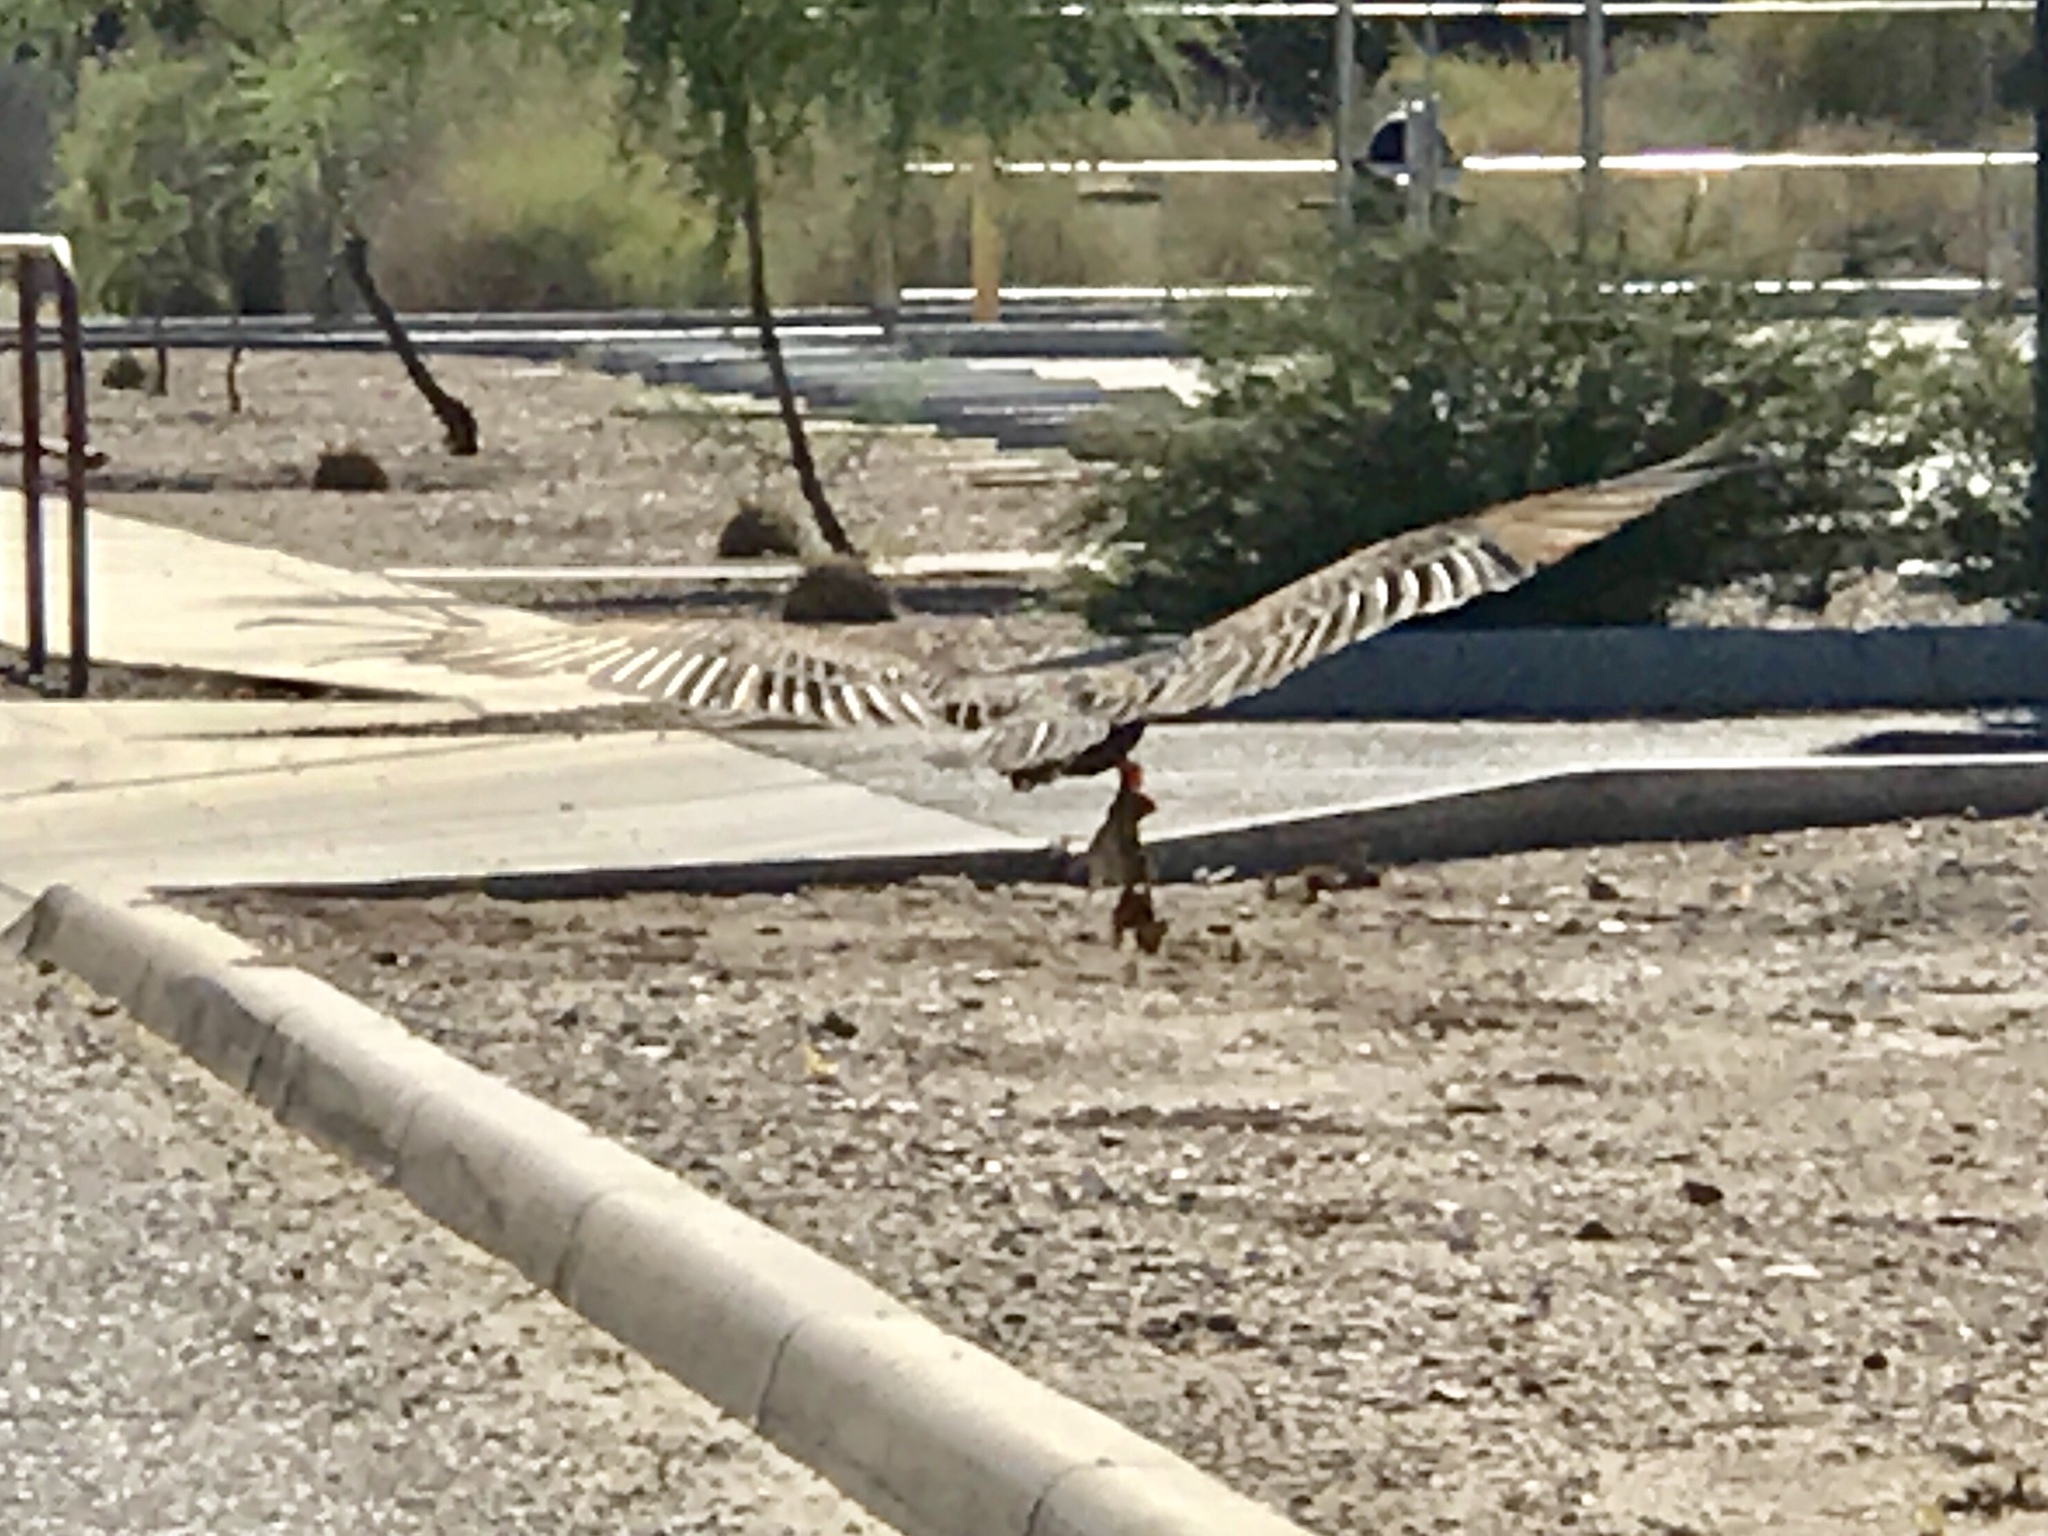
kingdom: Animalia
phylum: Chordata
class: Aves
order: Accipitriformes
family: Cathartidae
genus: Cathartes
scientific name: Cathartes aura
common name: Turkey vulture
